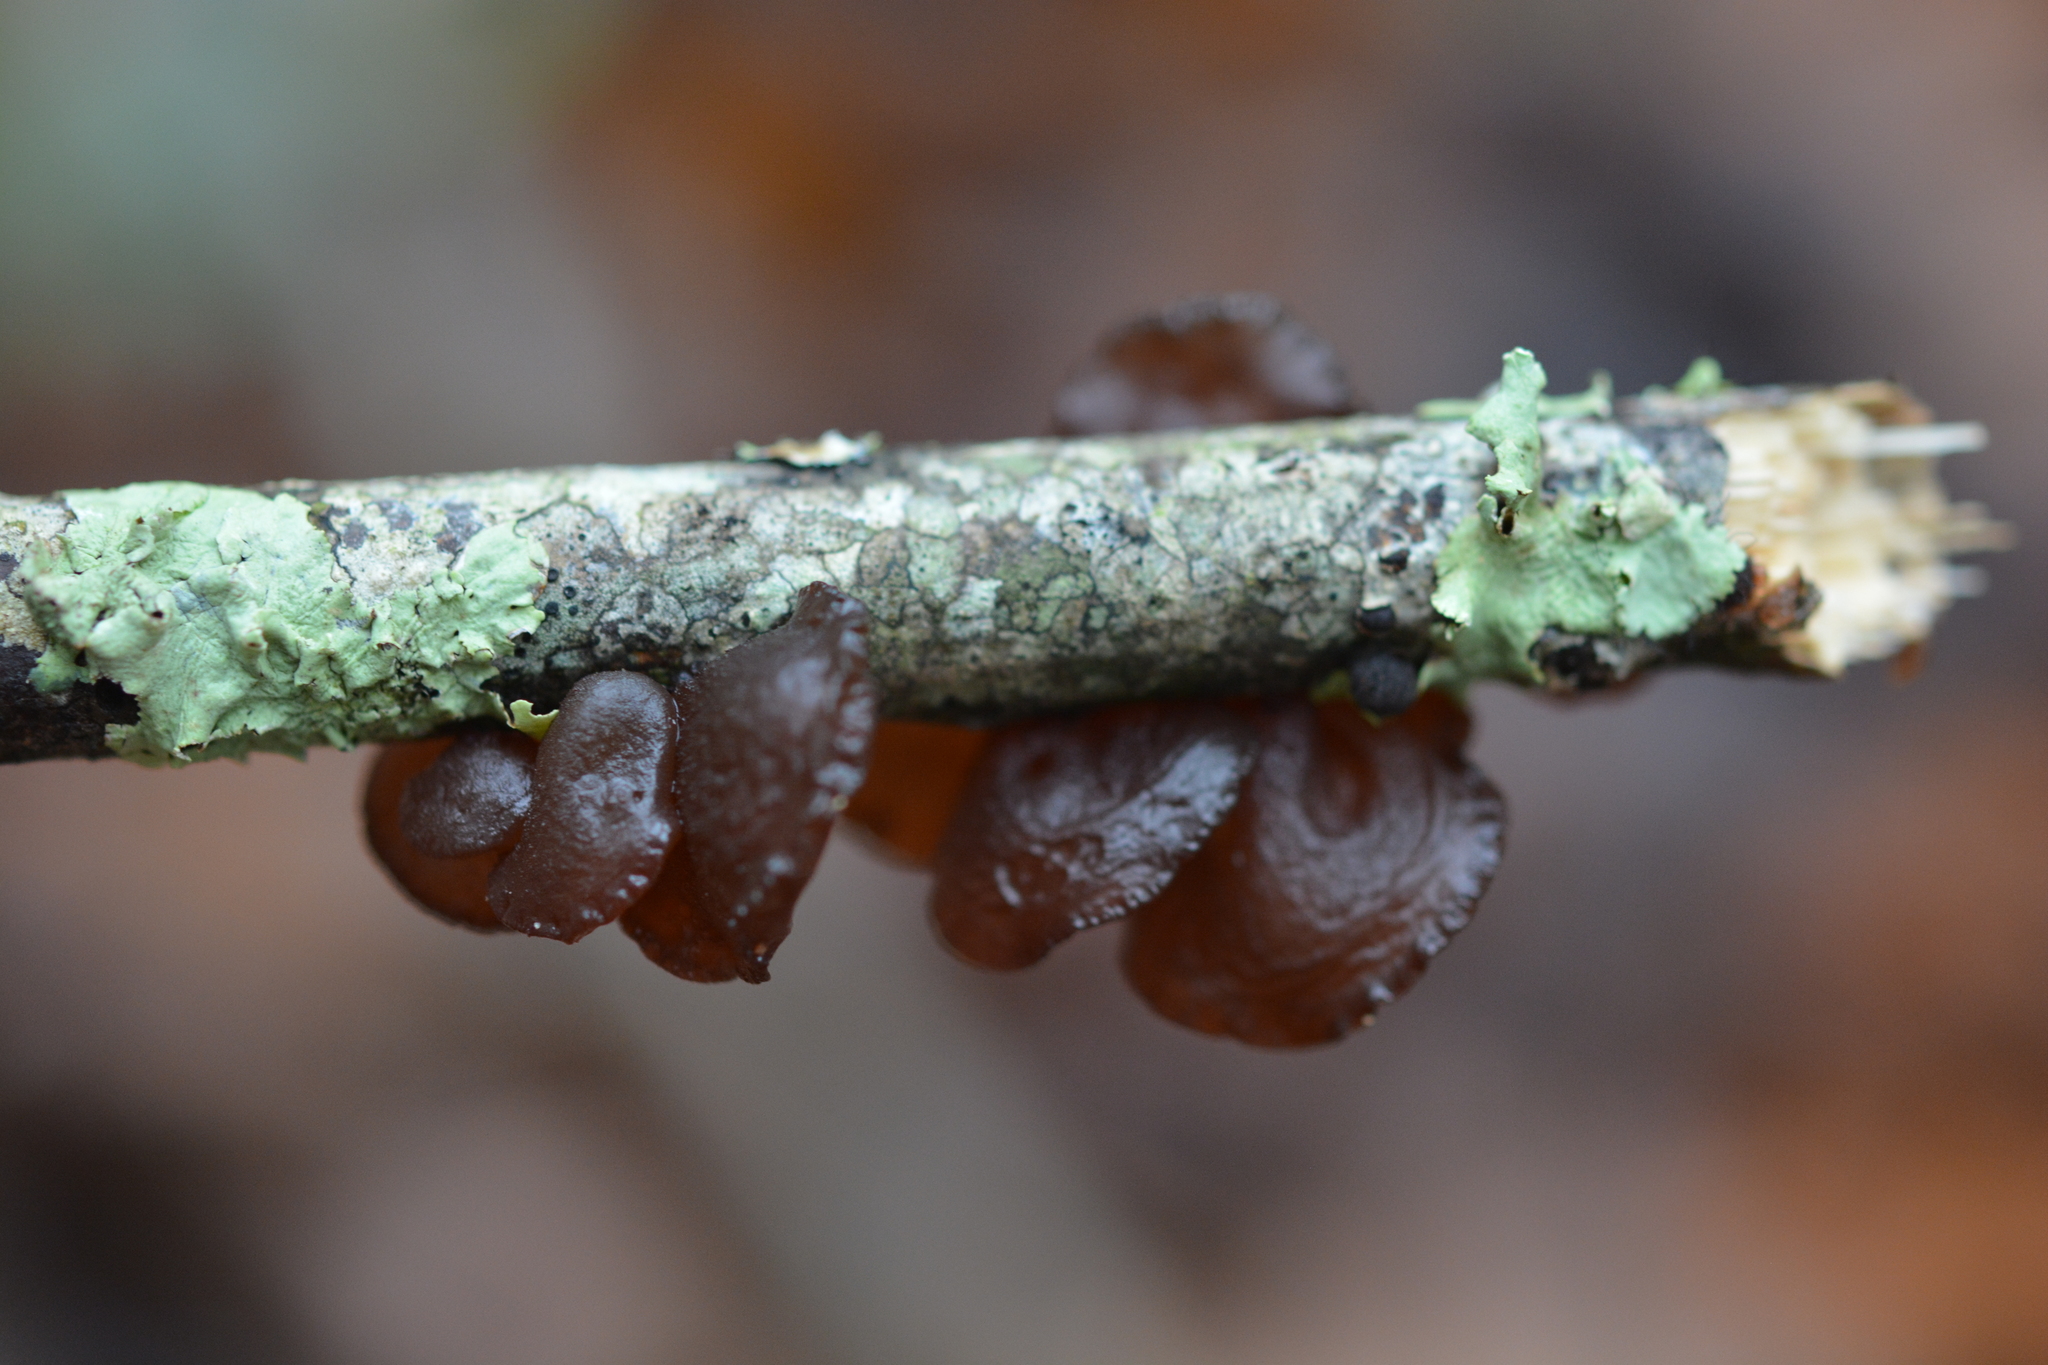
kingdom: Fungi
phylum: Basidiomycota
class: Agaricomycetes
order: Auriculariales
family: Auriculariaceae
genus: Exidia
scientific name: Exidia
